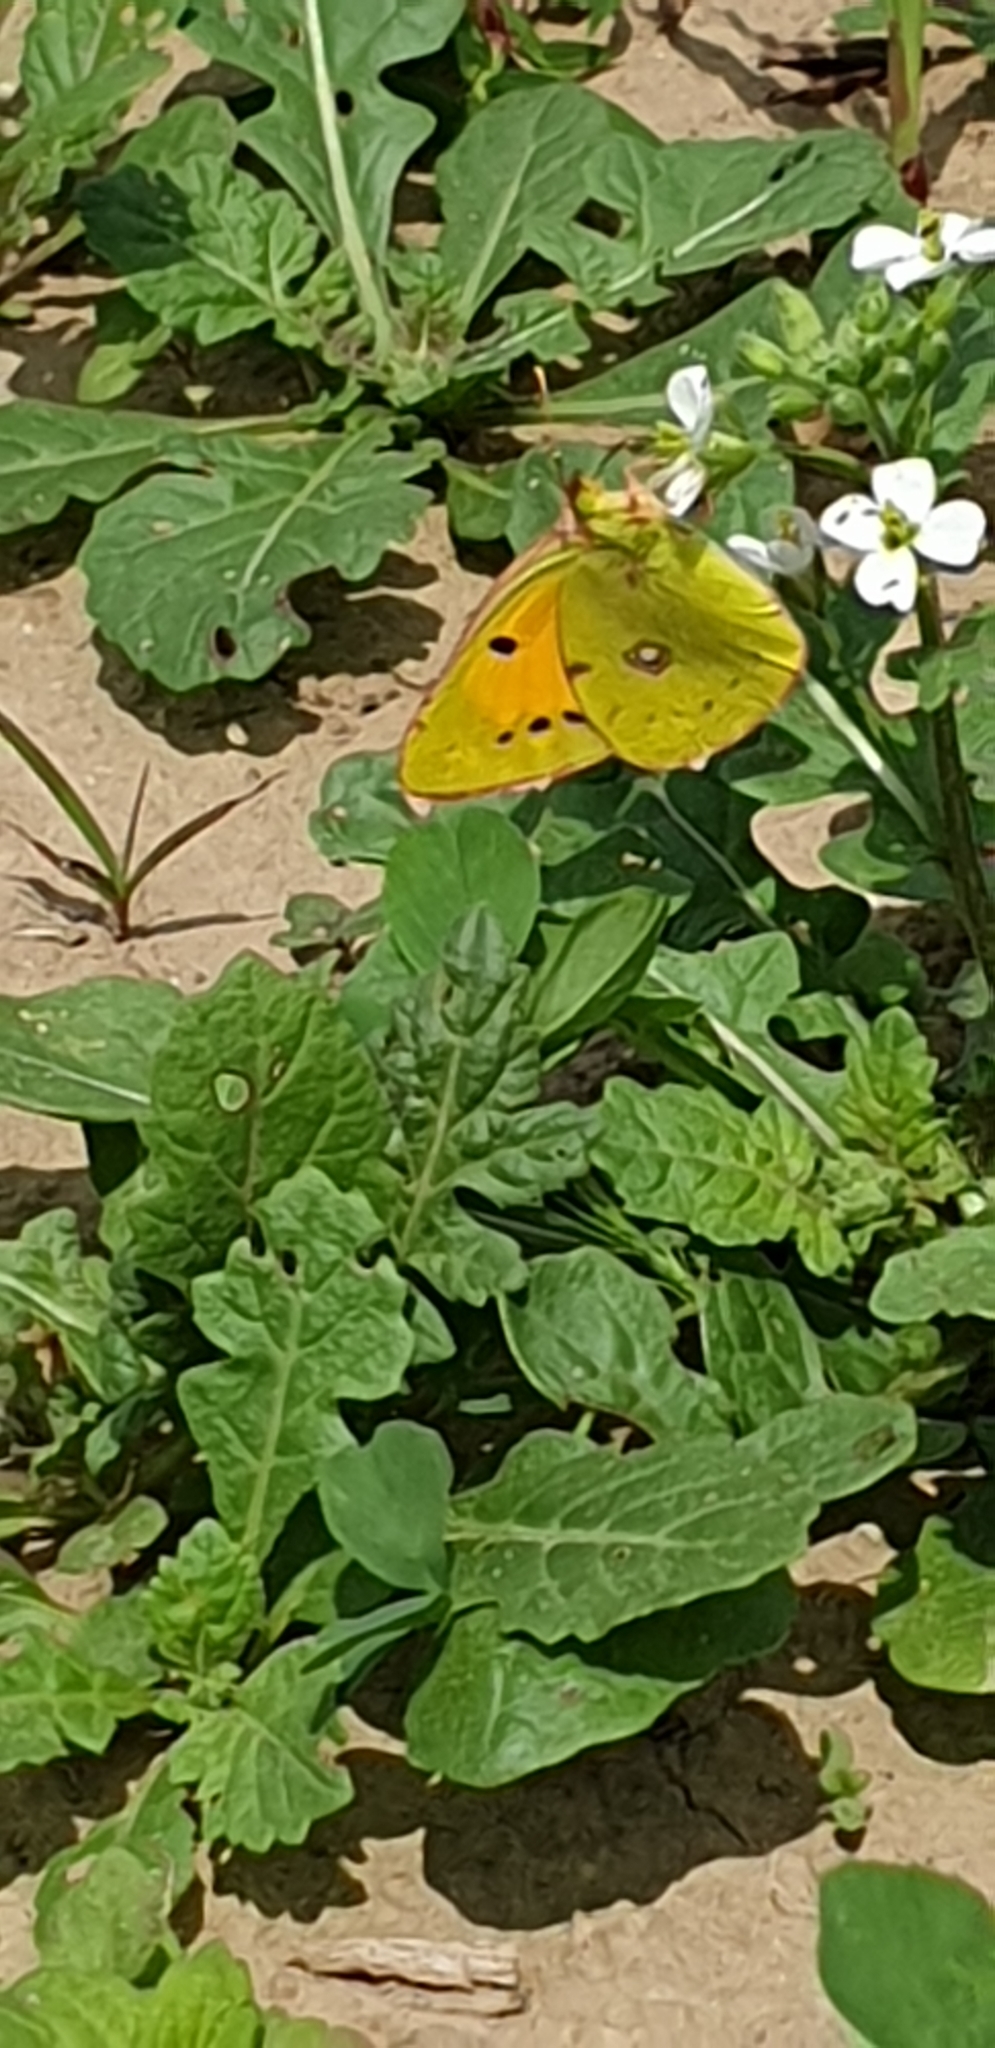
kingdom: Animalia
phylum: Arthropoda
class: Insecta
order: Lepidoptera
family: Pieridae
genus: Colias
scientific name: Colias croceus
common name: Clouded yellow
